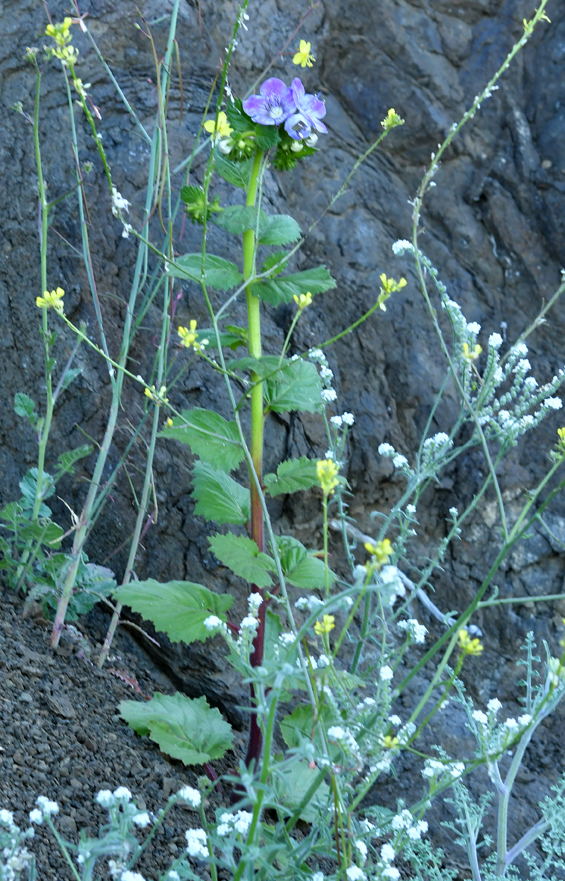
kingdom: Plantae
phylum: Tracheophyta
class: Magnoliopsida
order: Boraginales
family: Hydrophyllaceae
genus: Phacelia
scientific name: Phacelia grandiflora
